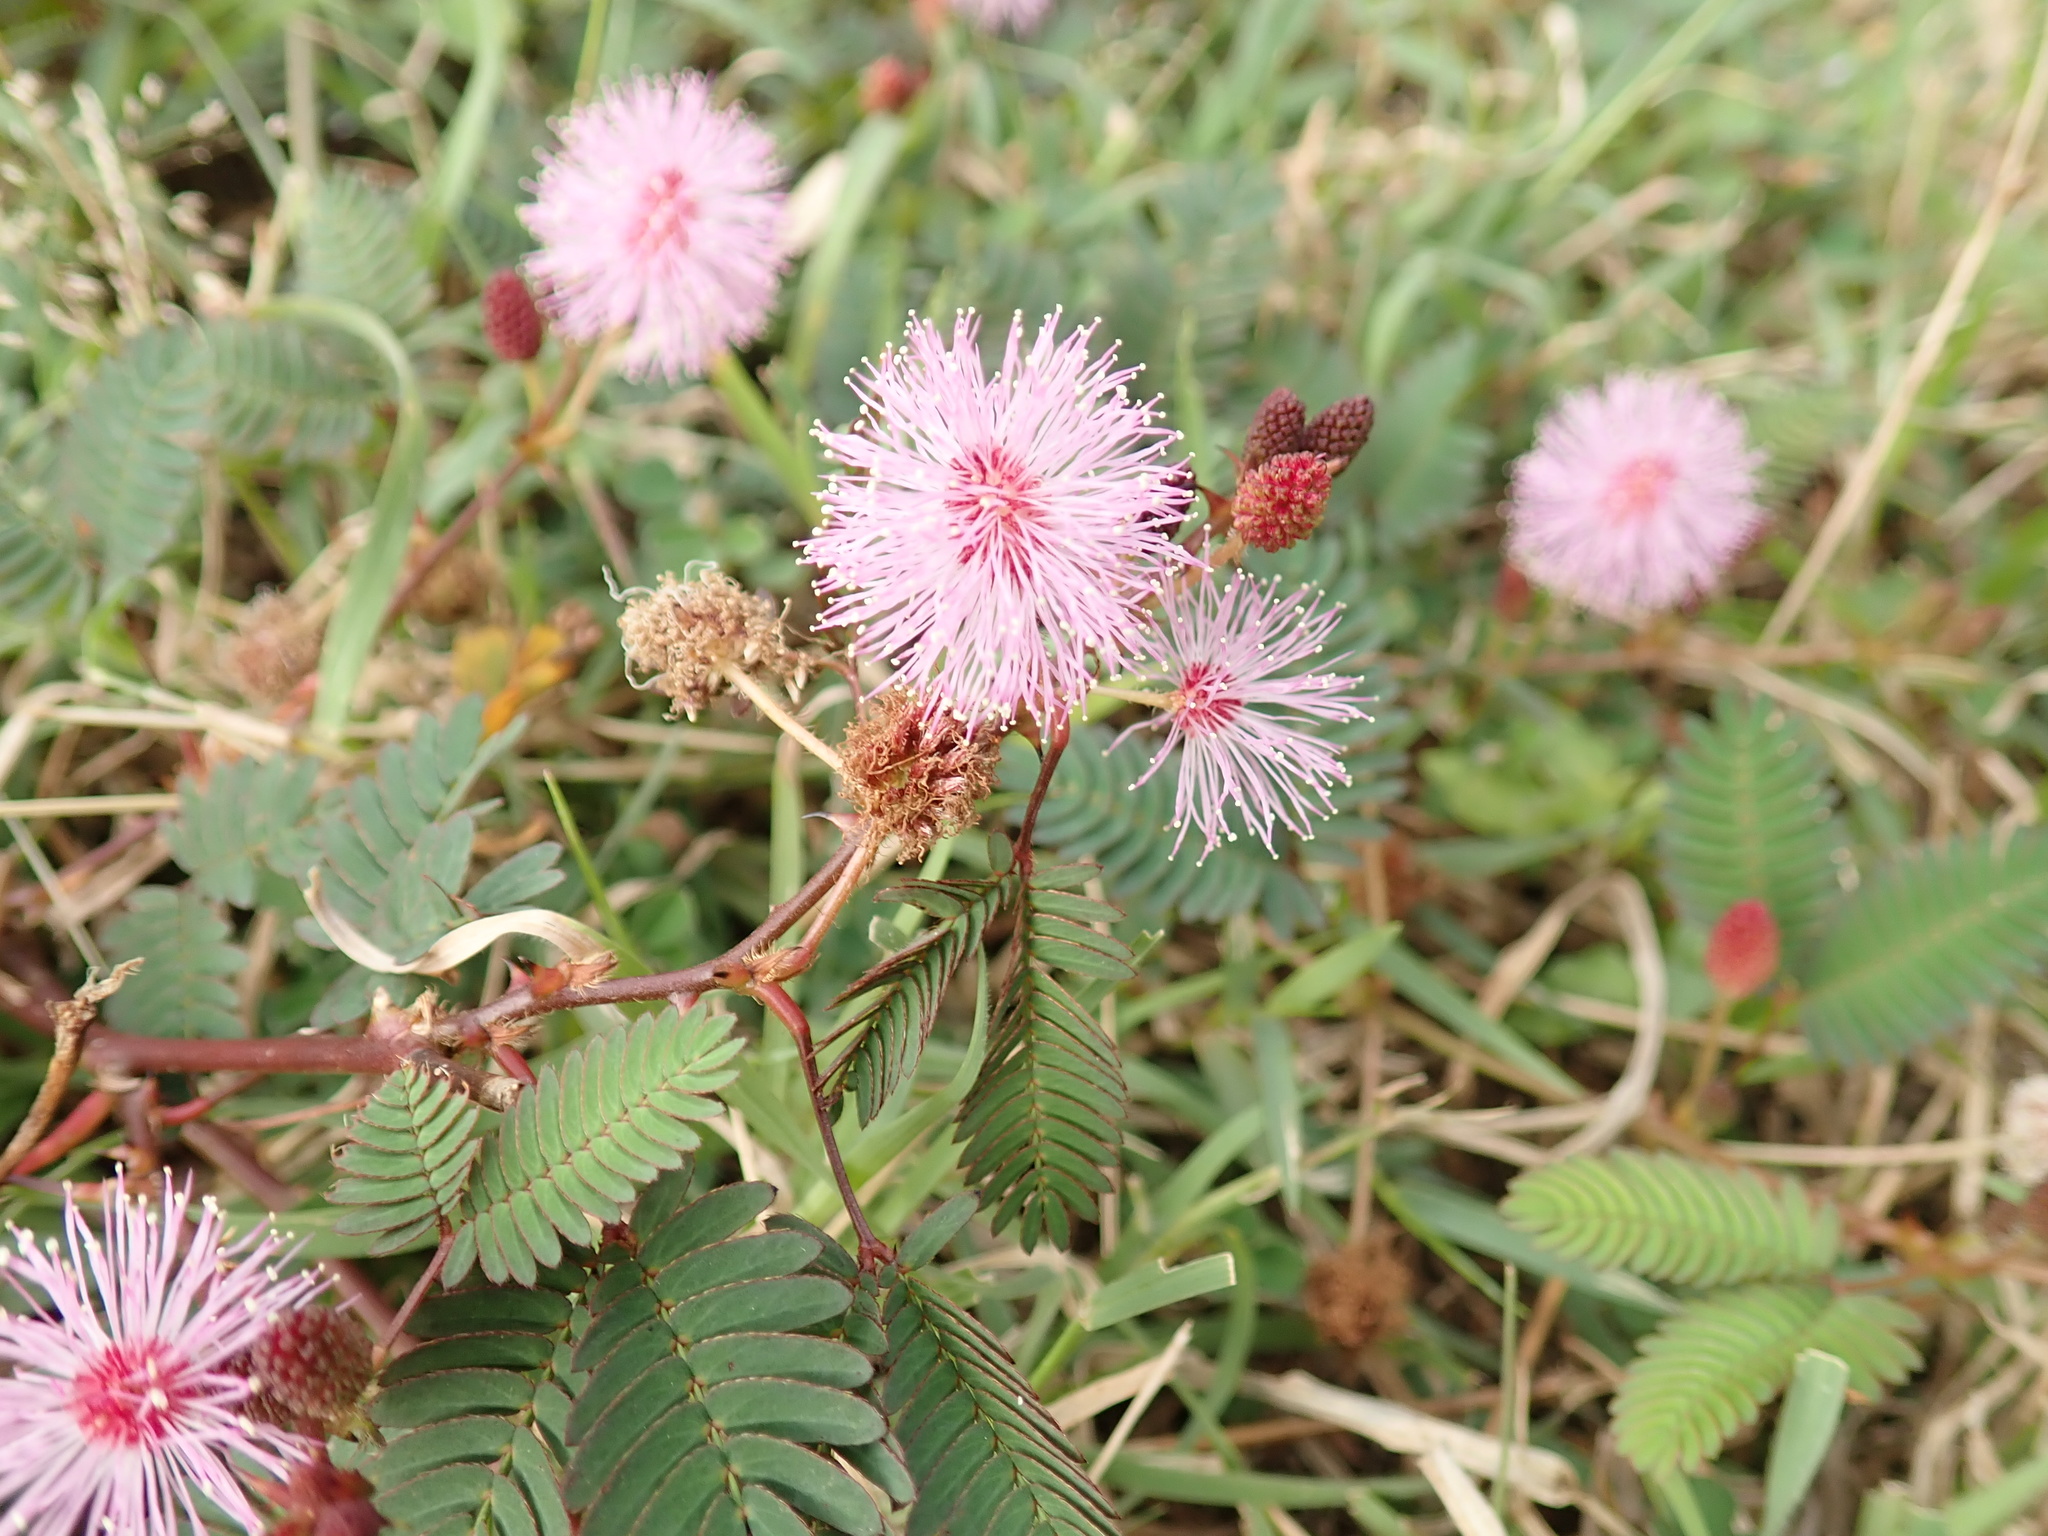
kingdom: Plantae
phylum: Tracheophyta
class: Magnoliopsida
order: Fabales
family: Fabaceae
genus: Mimosa
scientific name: Mimosa pudica
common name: Sensitive plant
